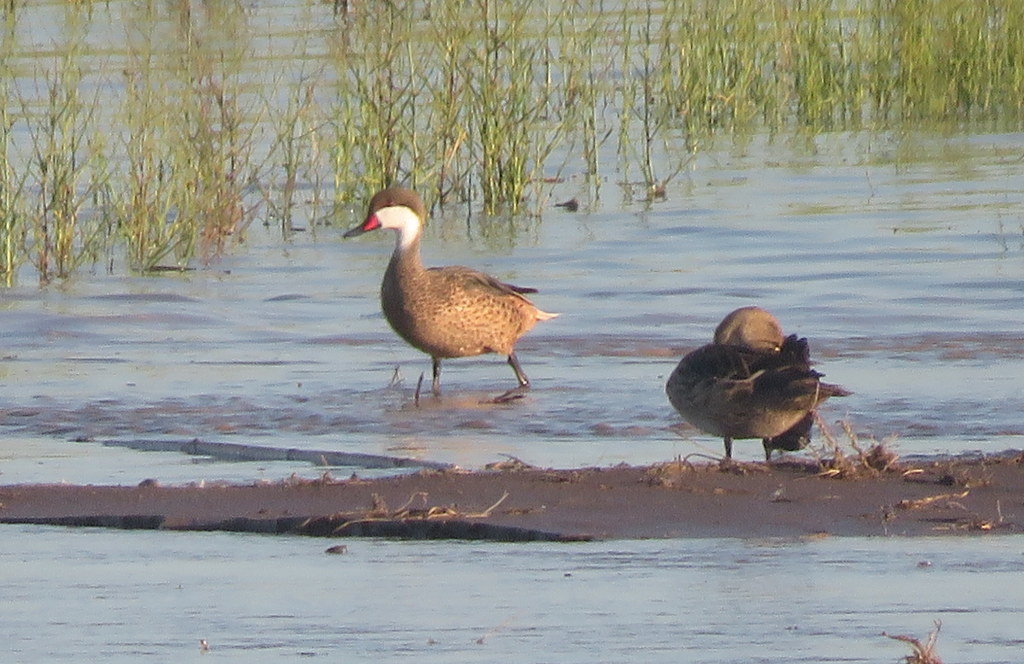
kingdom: Animalia
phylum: Chordata
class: Aves
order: Anseriformes
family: Anatidae
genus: Anas
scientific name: Anas bahamensis
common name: White-cheeked pintail
